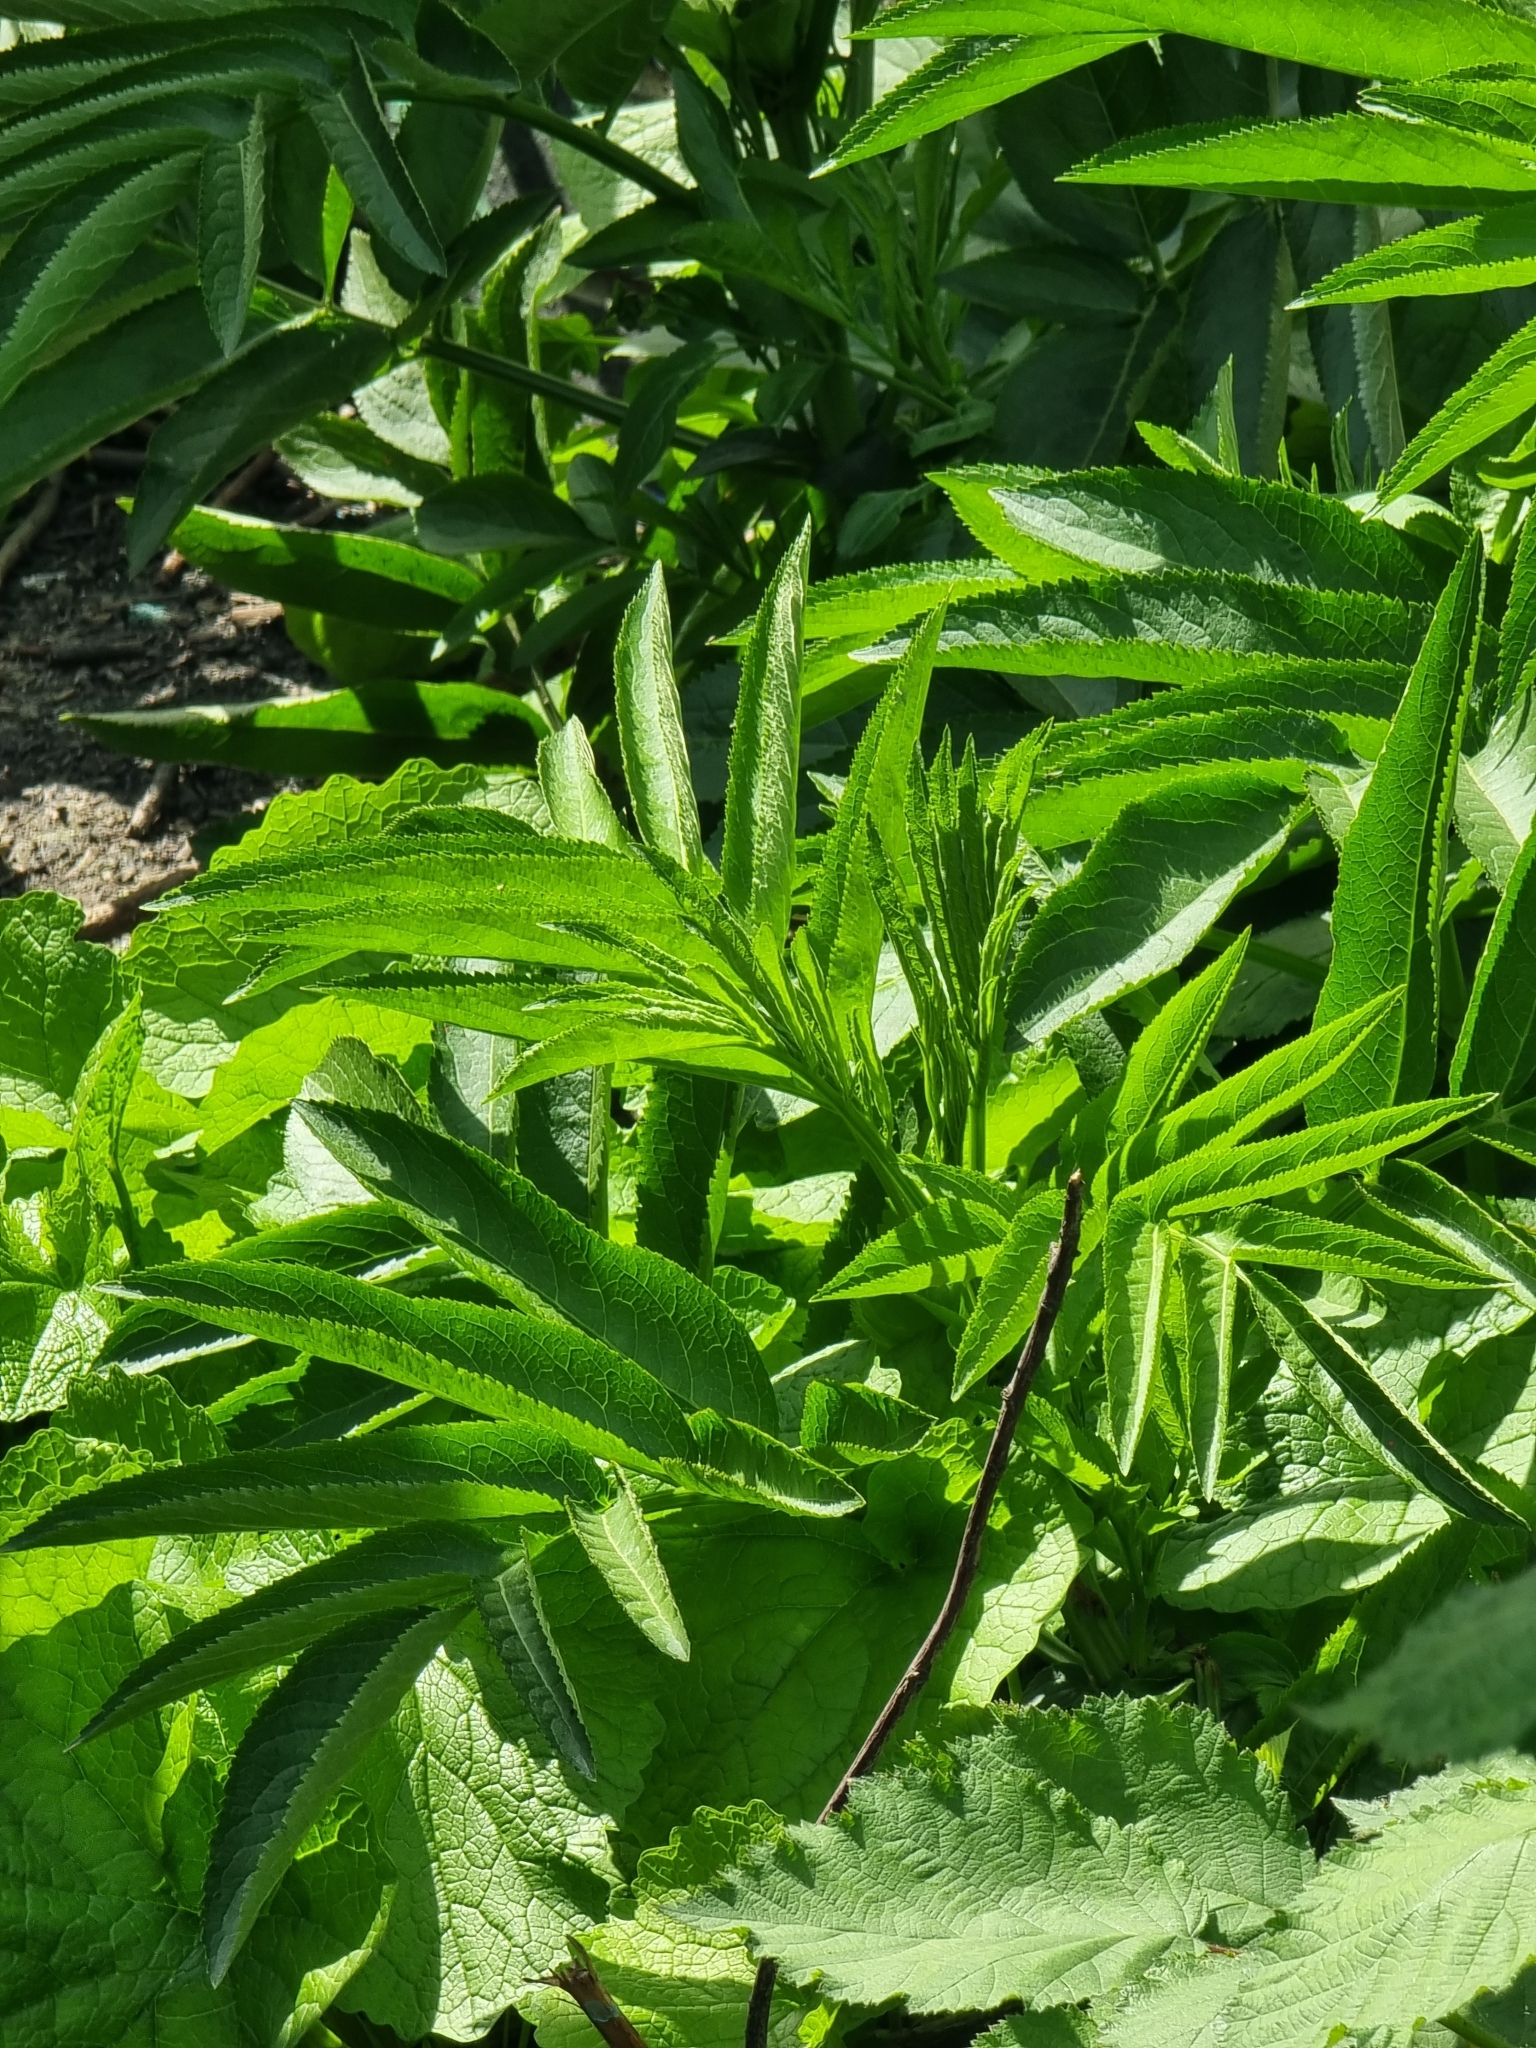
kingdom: Plantae
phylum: Tracheophyta
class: Magnoliopsida
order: Dipsacales
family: Viburnaceae
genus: Sambucus
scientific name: Sambucus ebulus
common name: Dwarf elder
